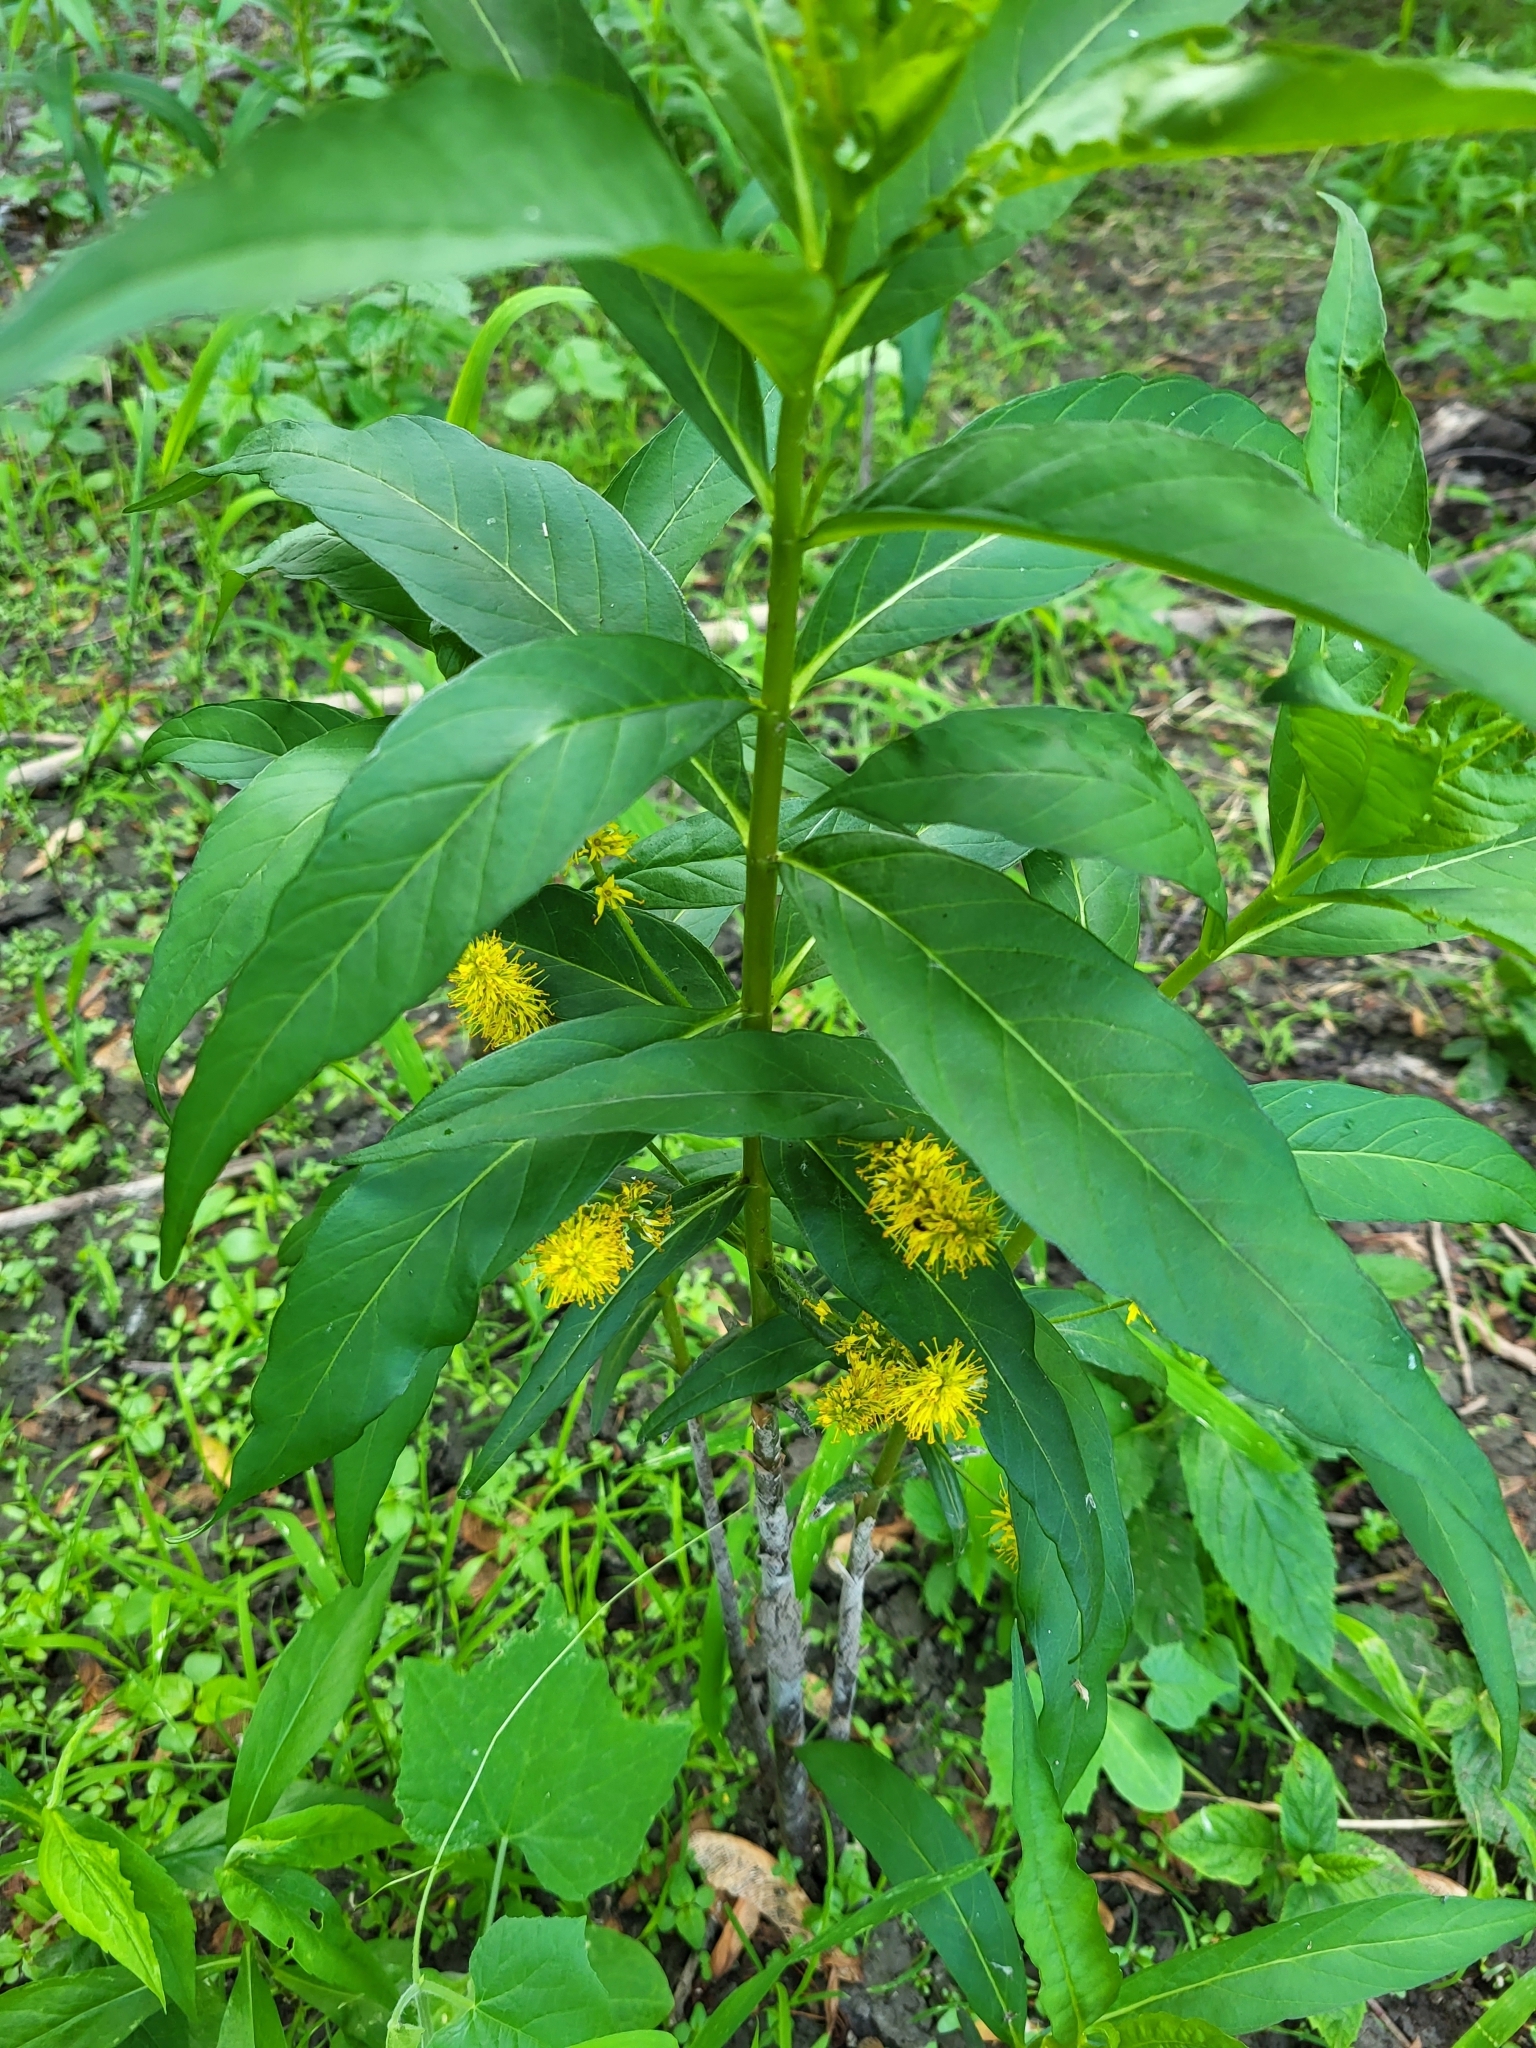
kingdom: Plantae
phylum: Tracheophyta
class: Magnoliopsida
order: Ericales
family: Primulaceae
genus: Lysimachia
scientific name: Lysimachia thyrsiflora
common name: Tufted loosestrife
